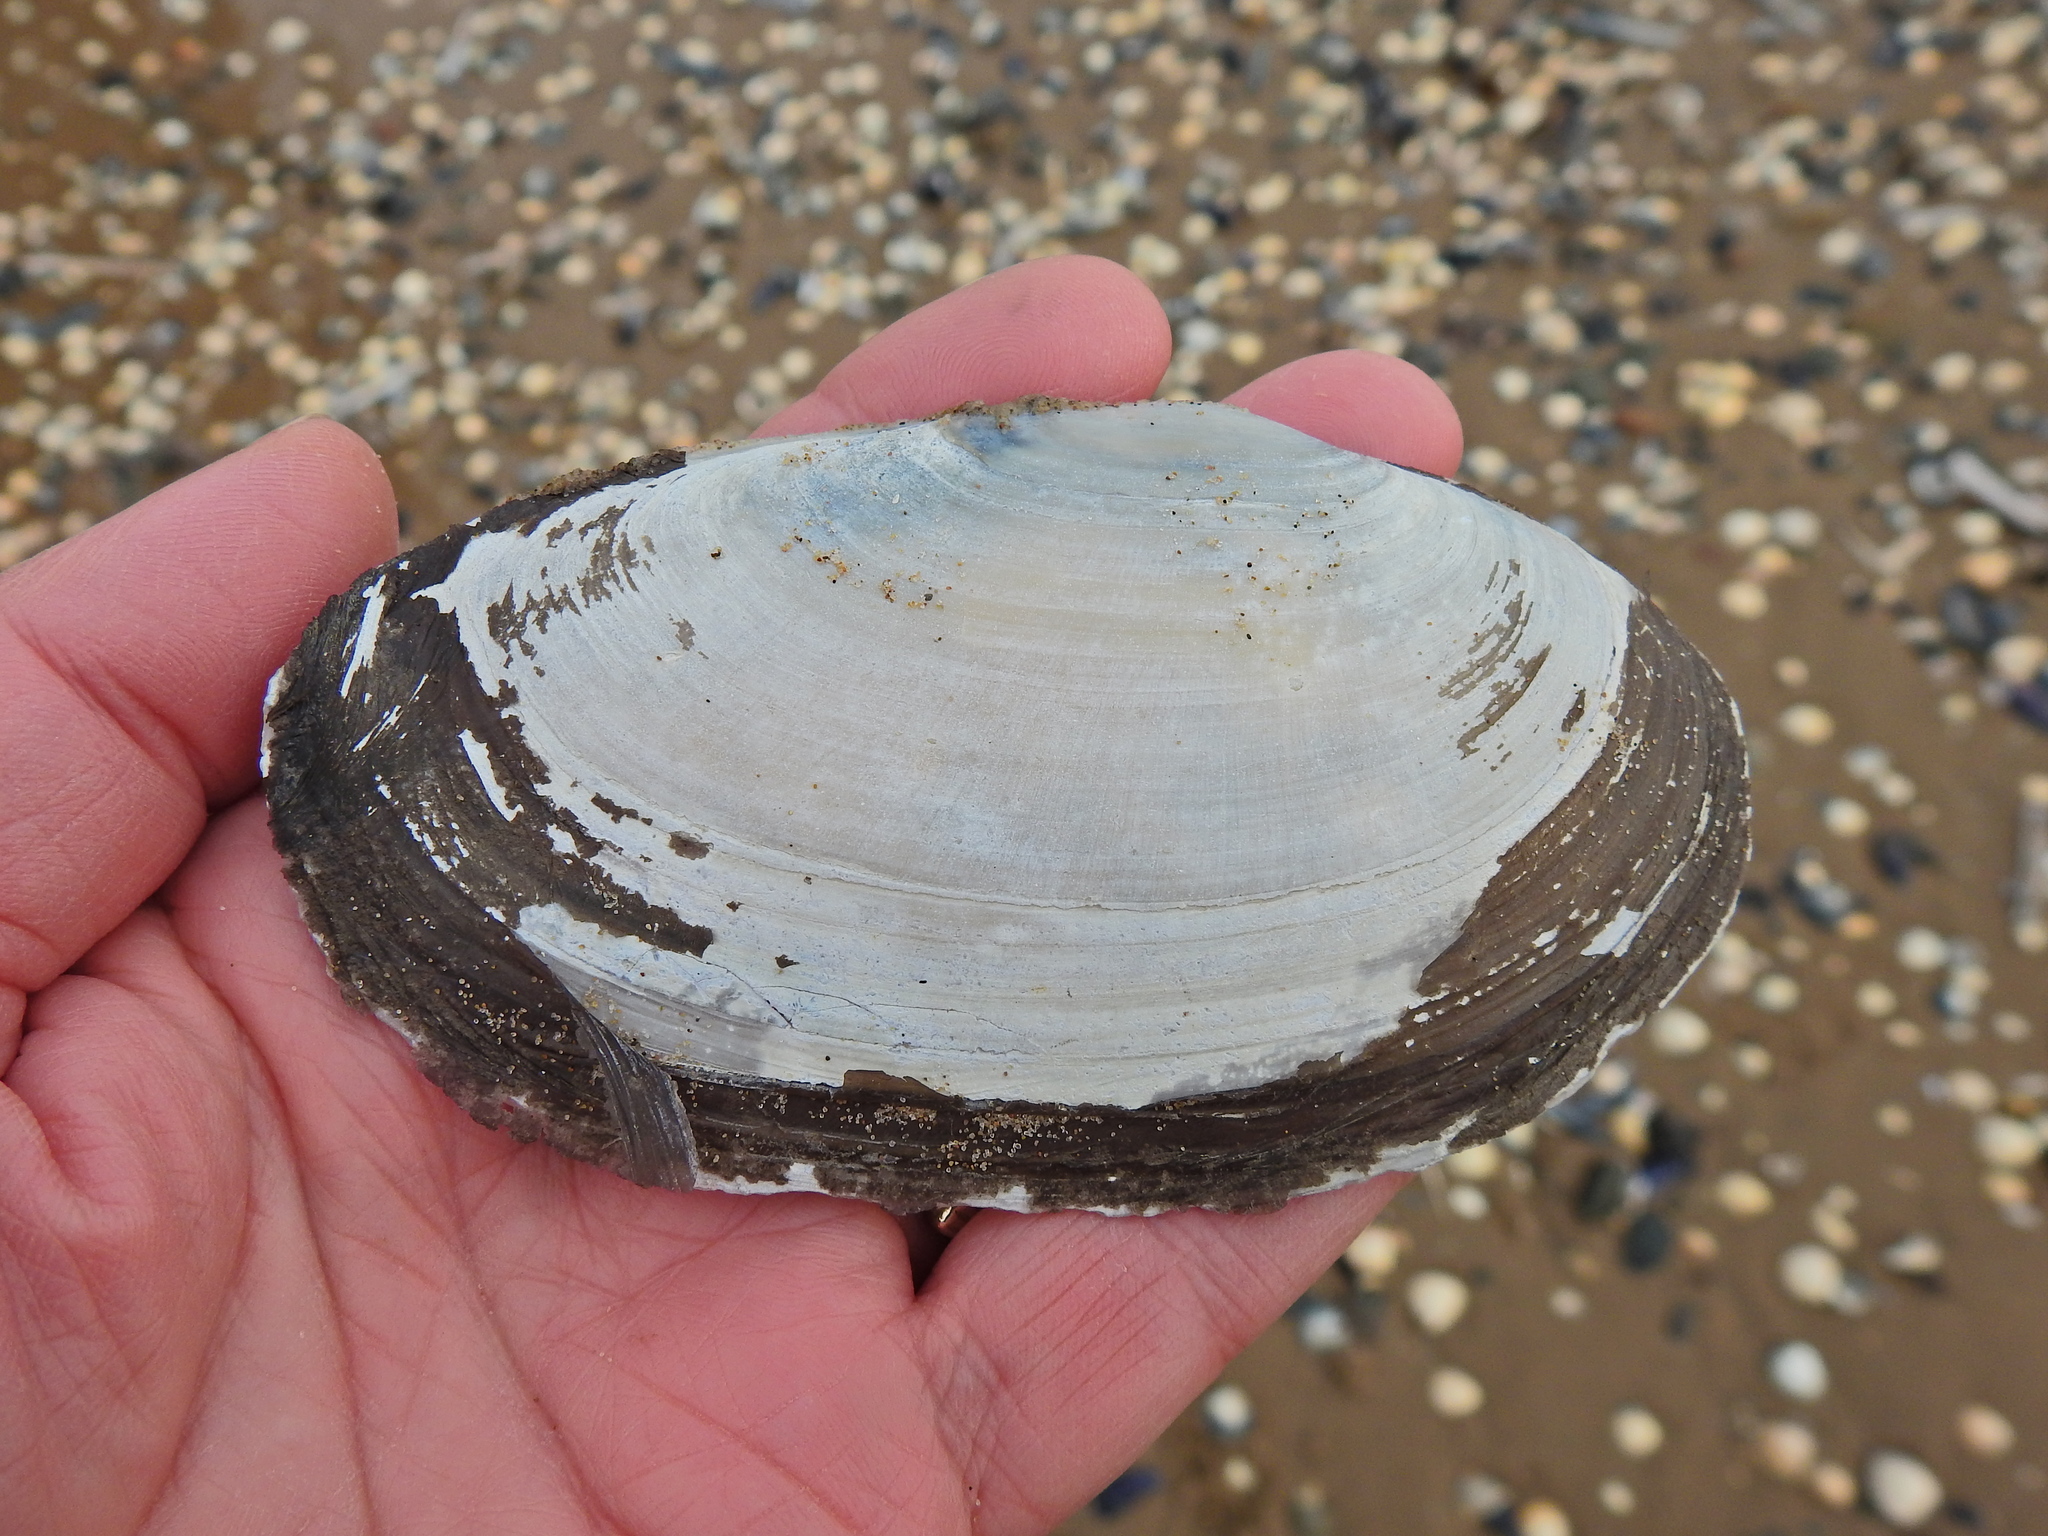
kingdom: Animalia
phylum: Mollusca
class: Bivalvia
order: Venerida
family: Mactridae
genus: Lutraria
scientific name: Lutraria lutraria
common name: Common otter shell
